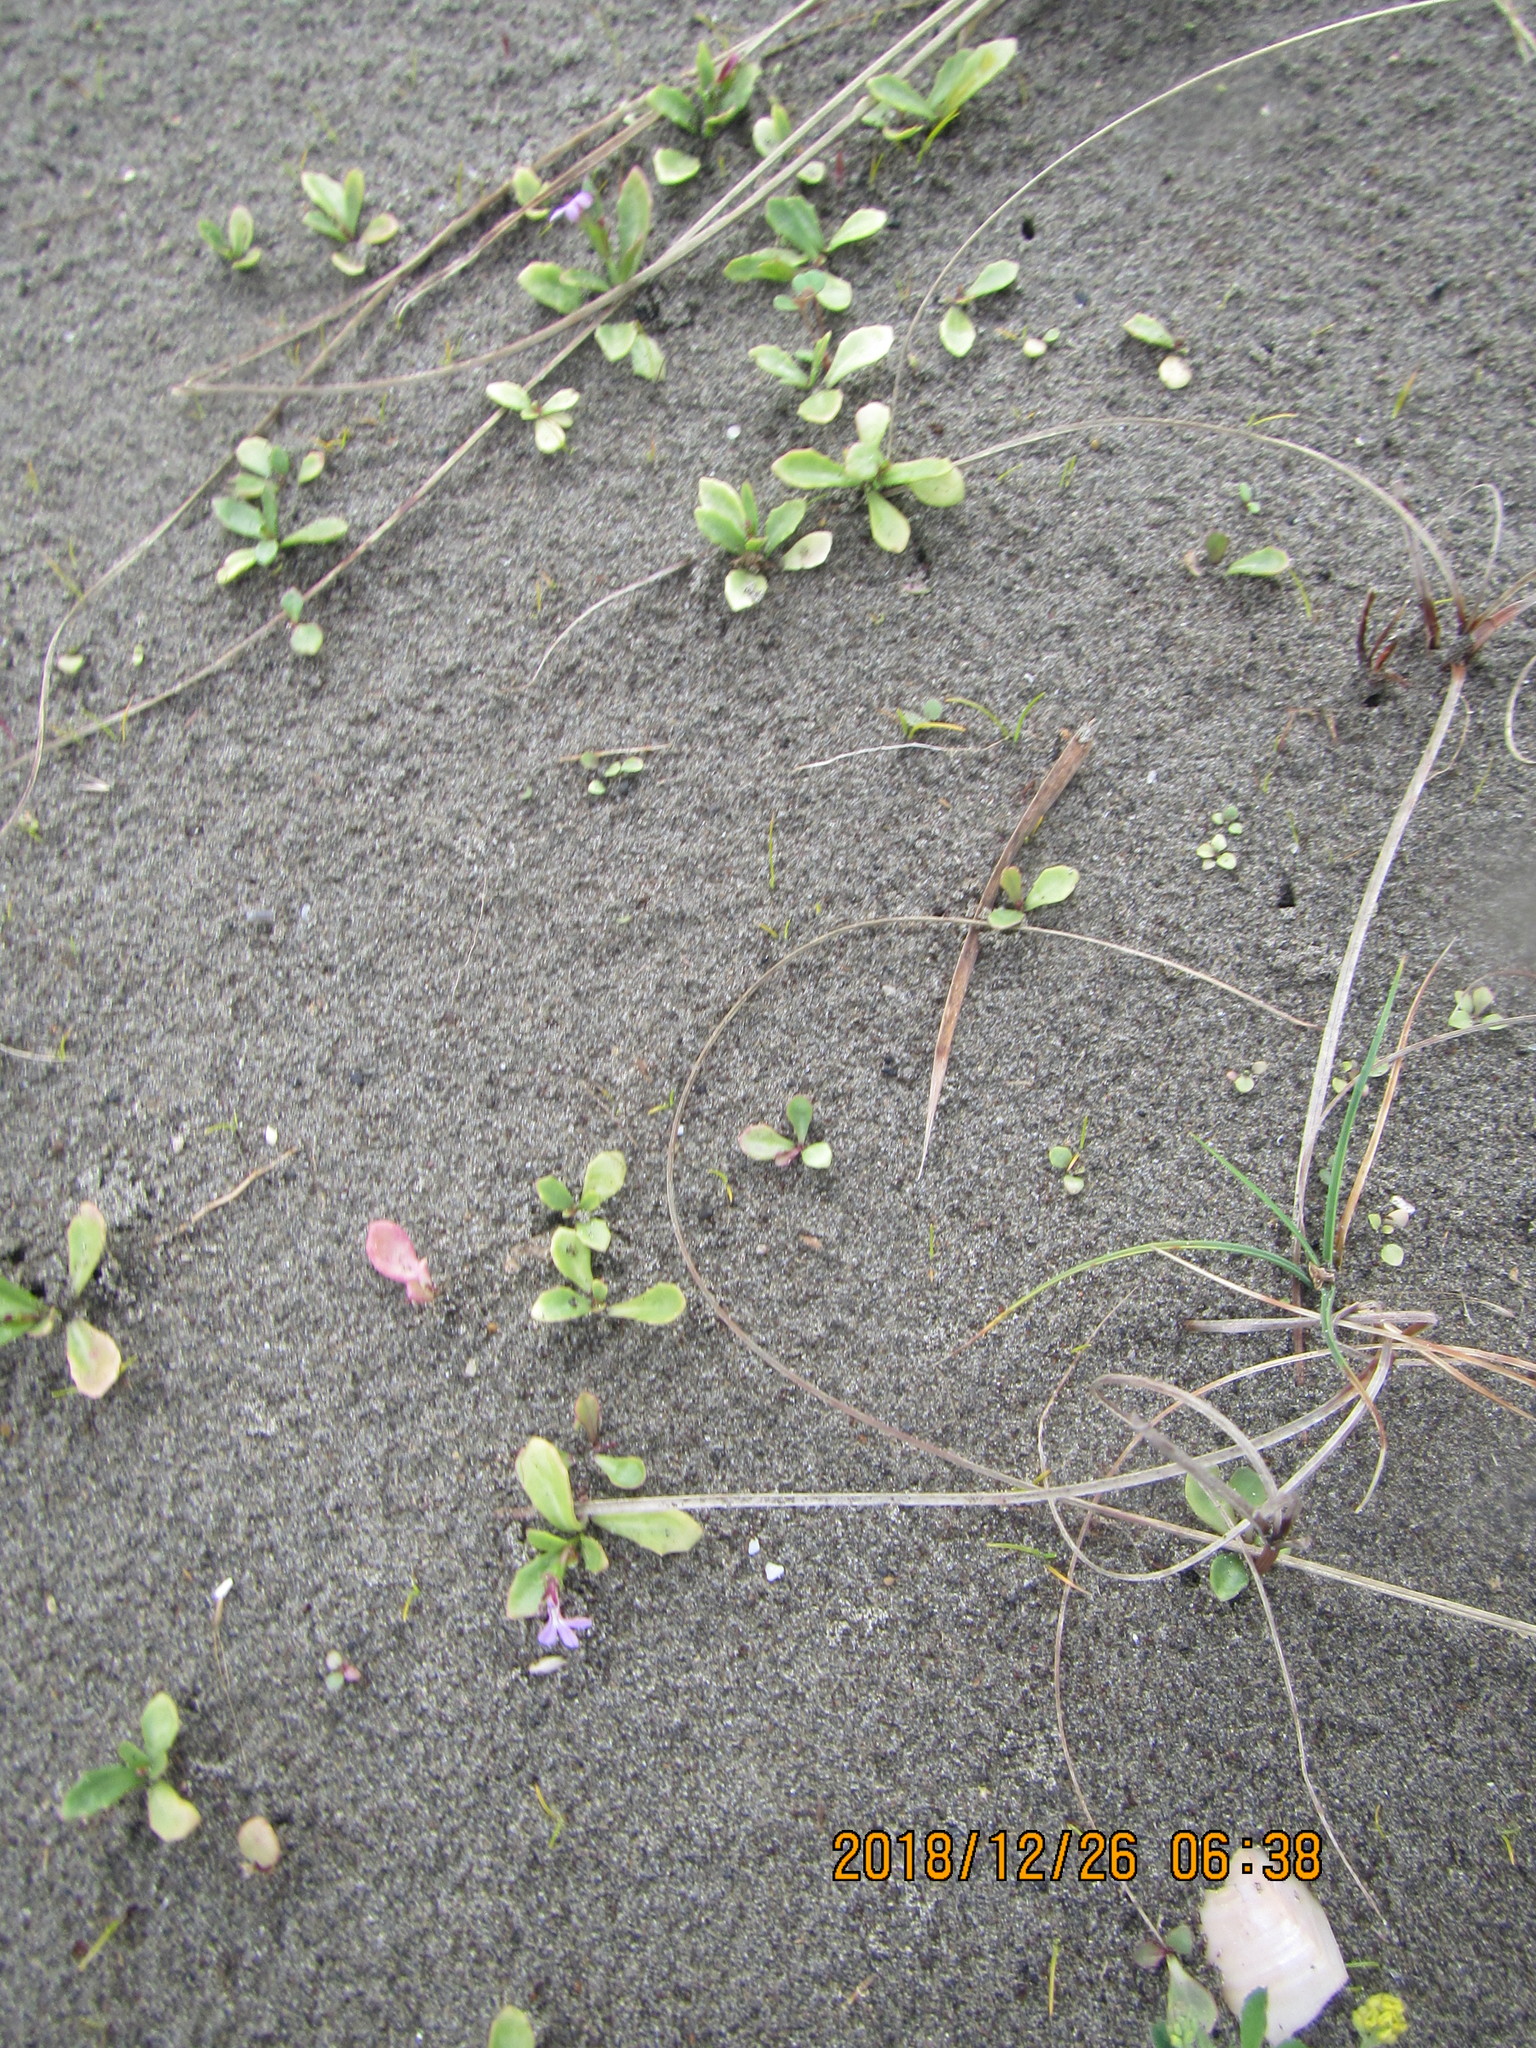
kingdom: Plantae
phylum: Tracheophyta
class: Magnoliopsida
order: Asterales
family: Campanulaceae
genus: Lobelia
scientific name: Lobelia anceps
